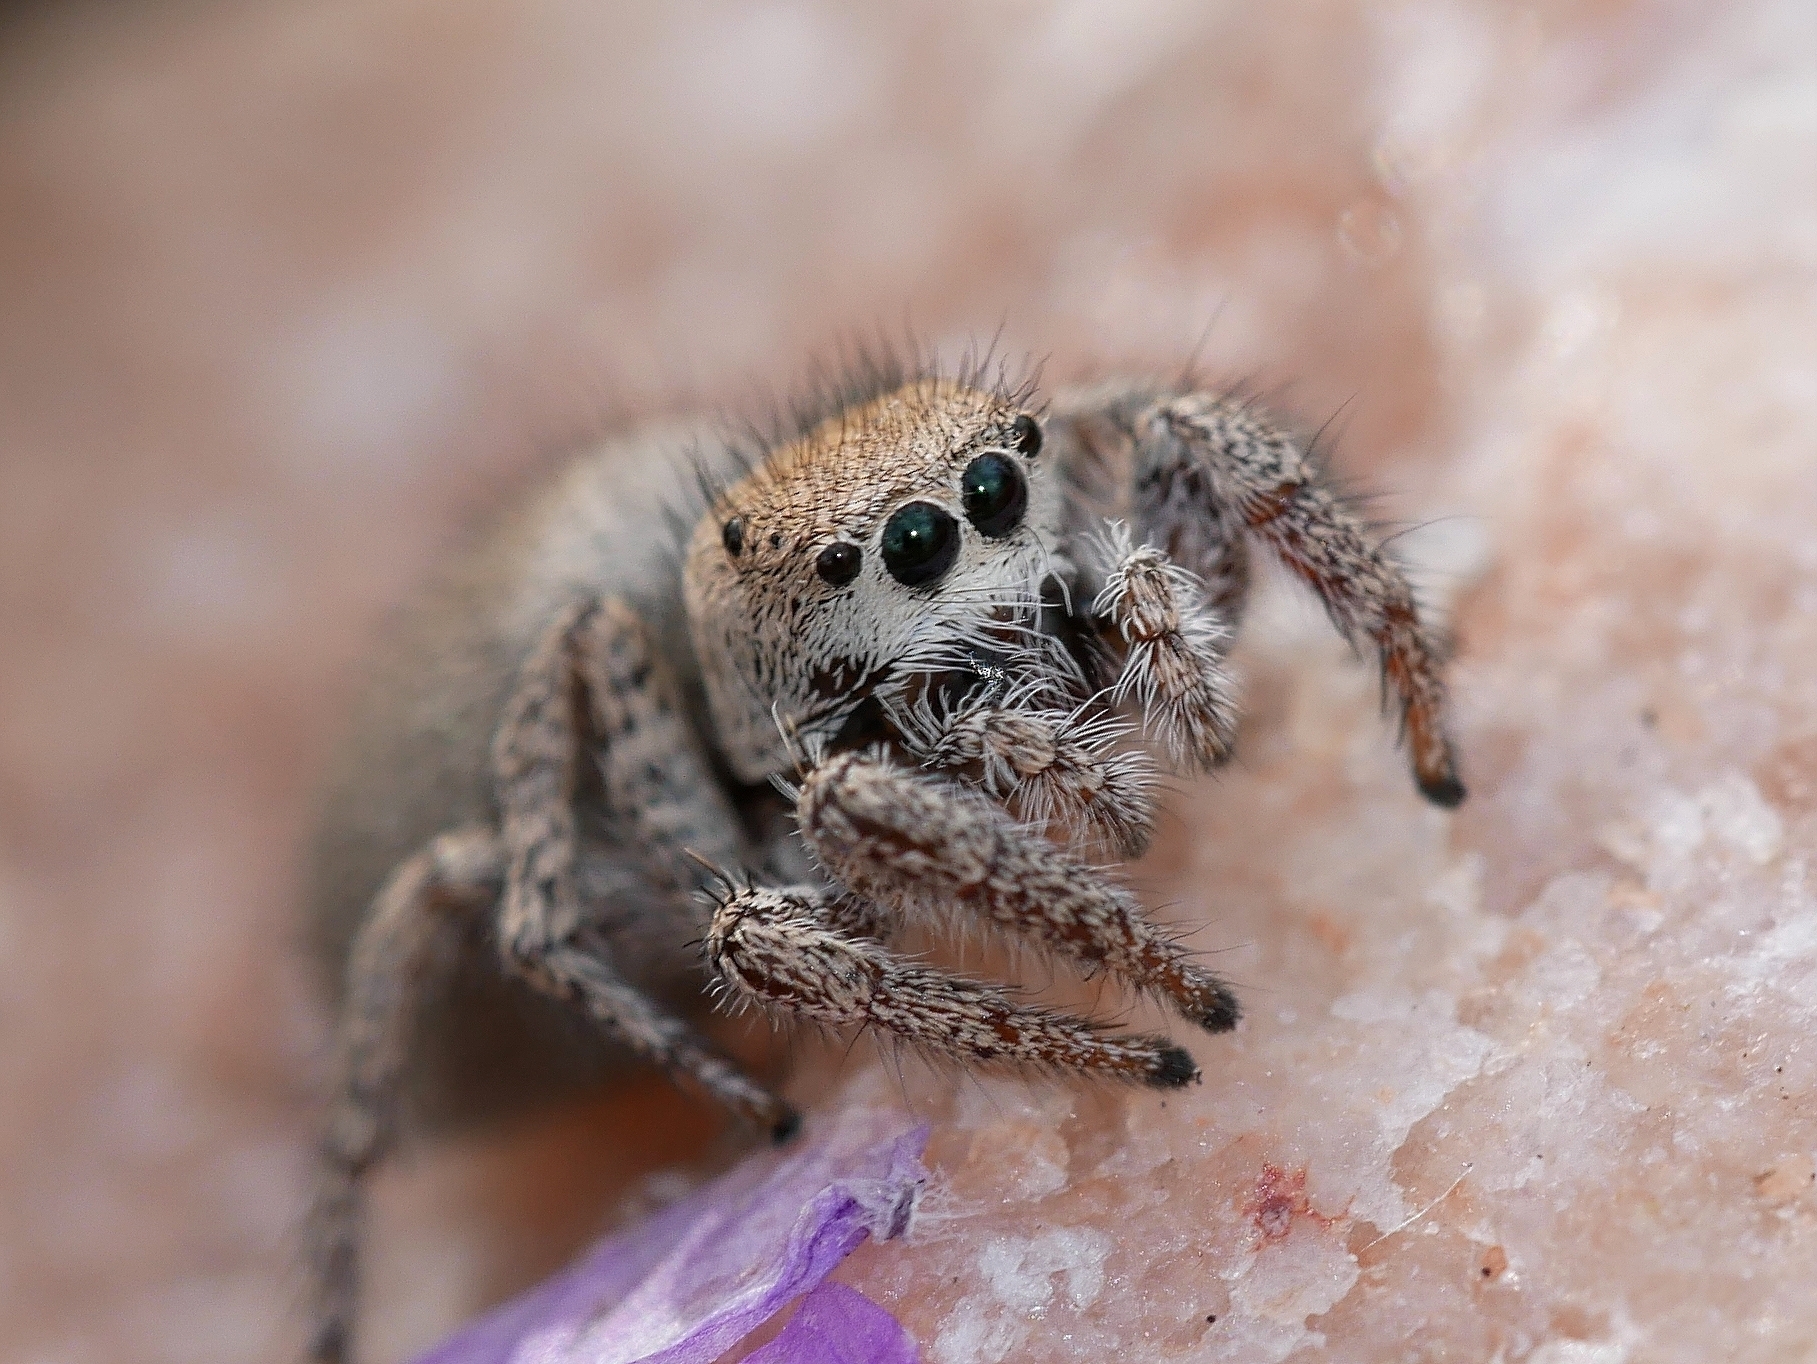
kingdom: Animalia
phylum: Arthropoda
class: Arachnida
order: Araneae
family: Salticidae
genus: Habronattus
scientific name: Habronattus clypeatus
